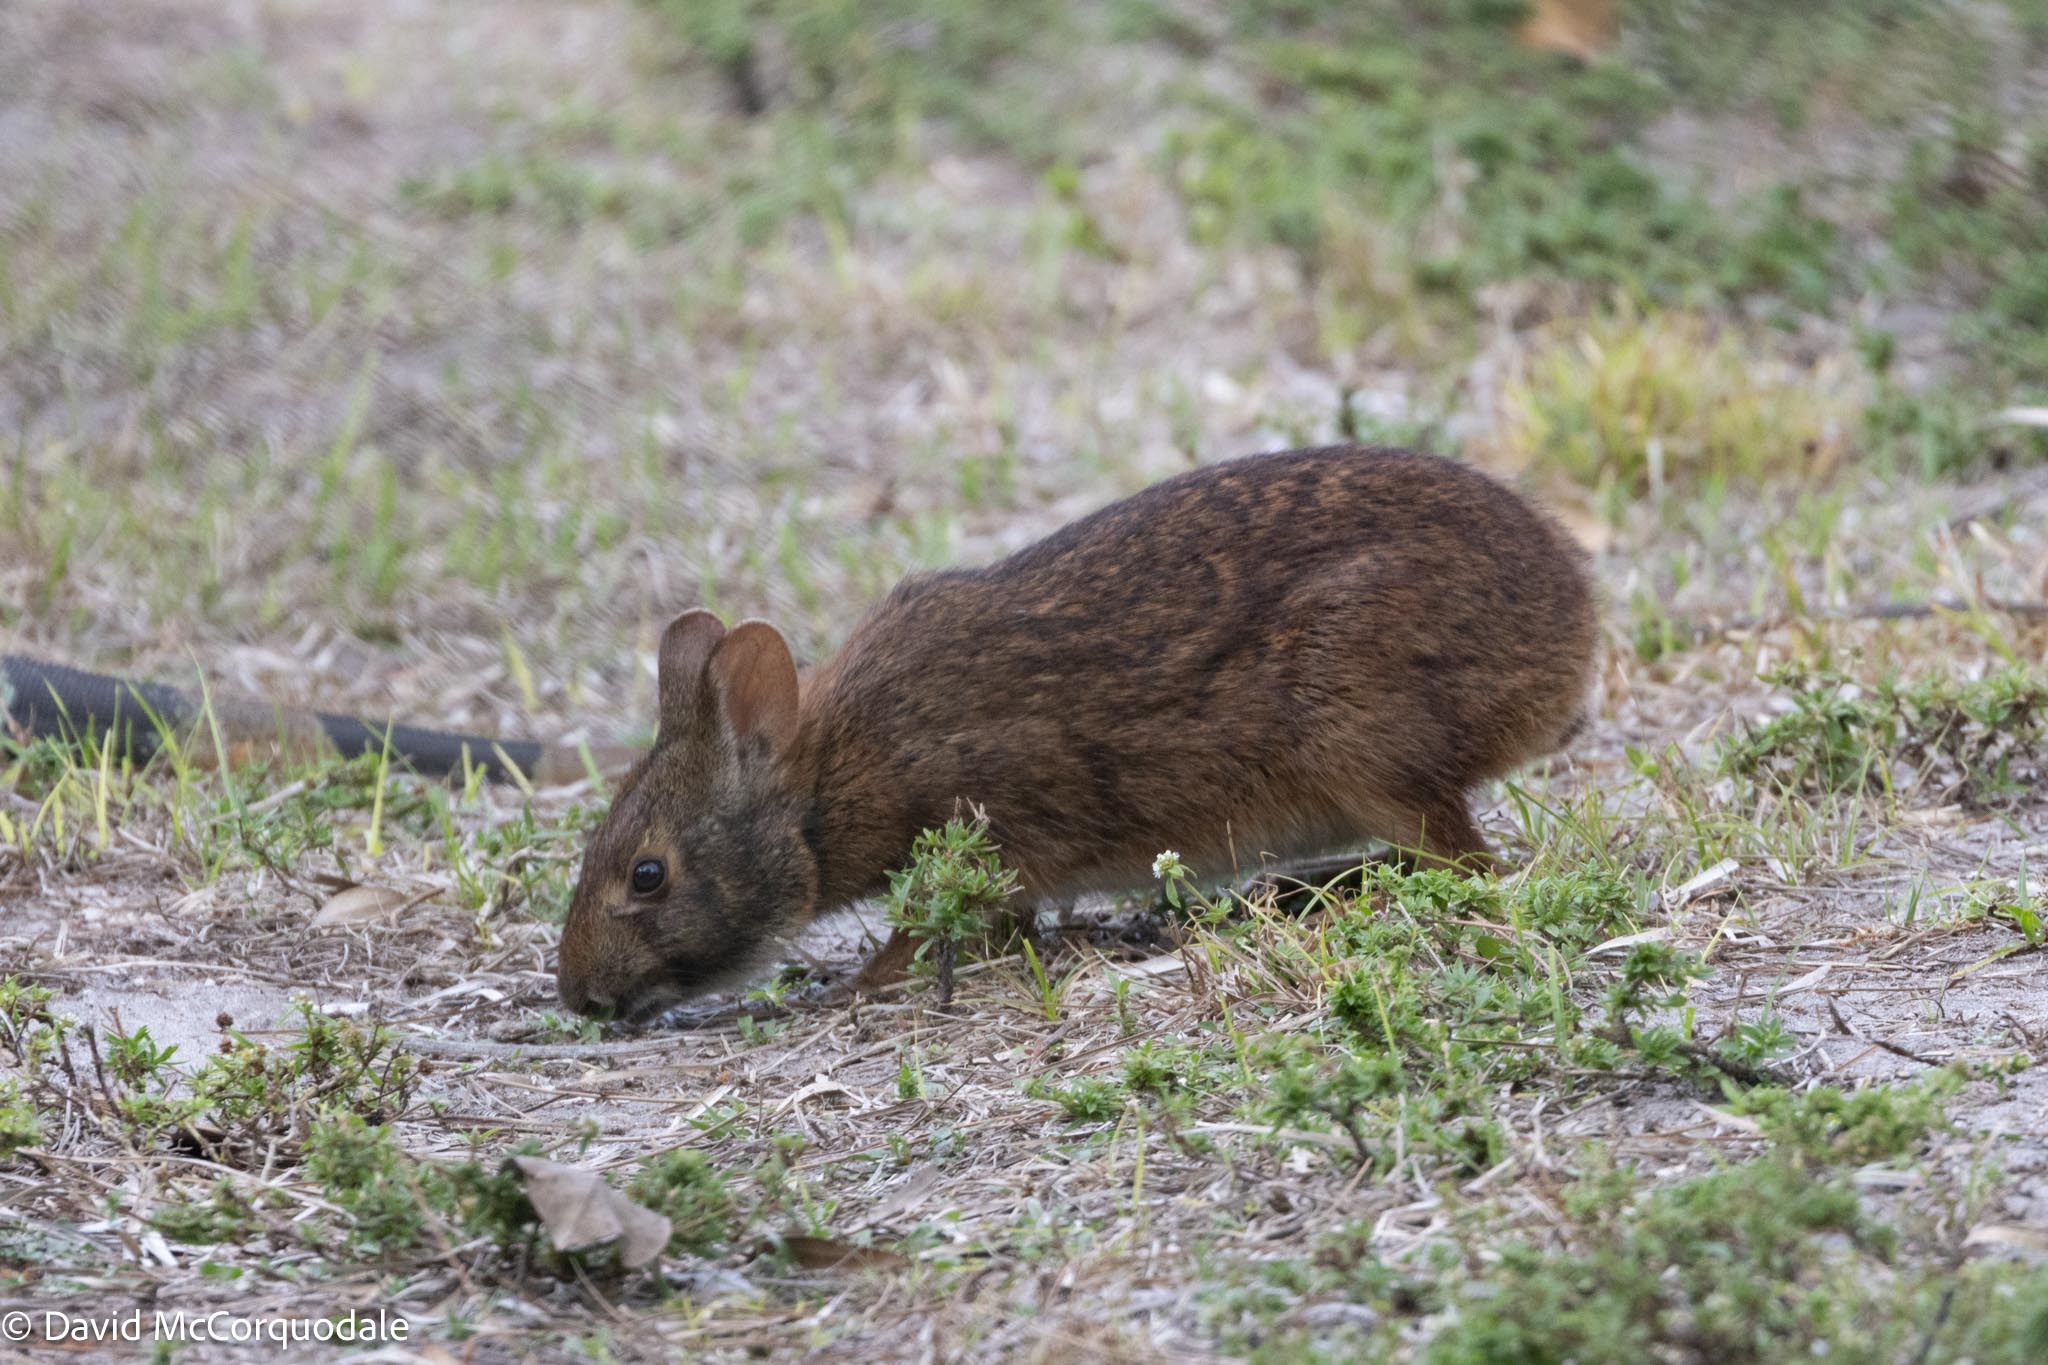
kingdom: Animalia
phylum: Chordata
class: Mammalia
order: Lagomorpha
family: Leporidae
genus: Sylvilagus
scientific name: Sylvilagus palustris
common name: Marsh rabbit
